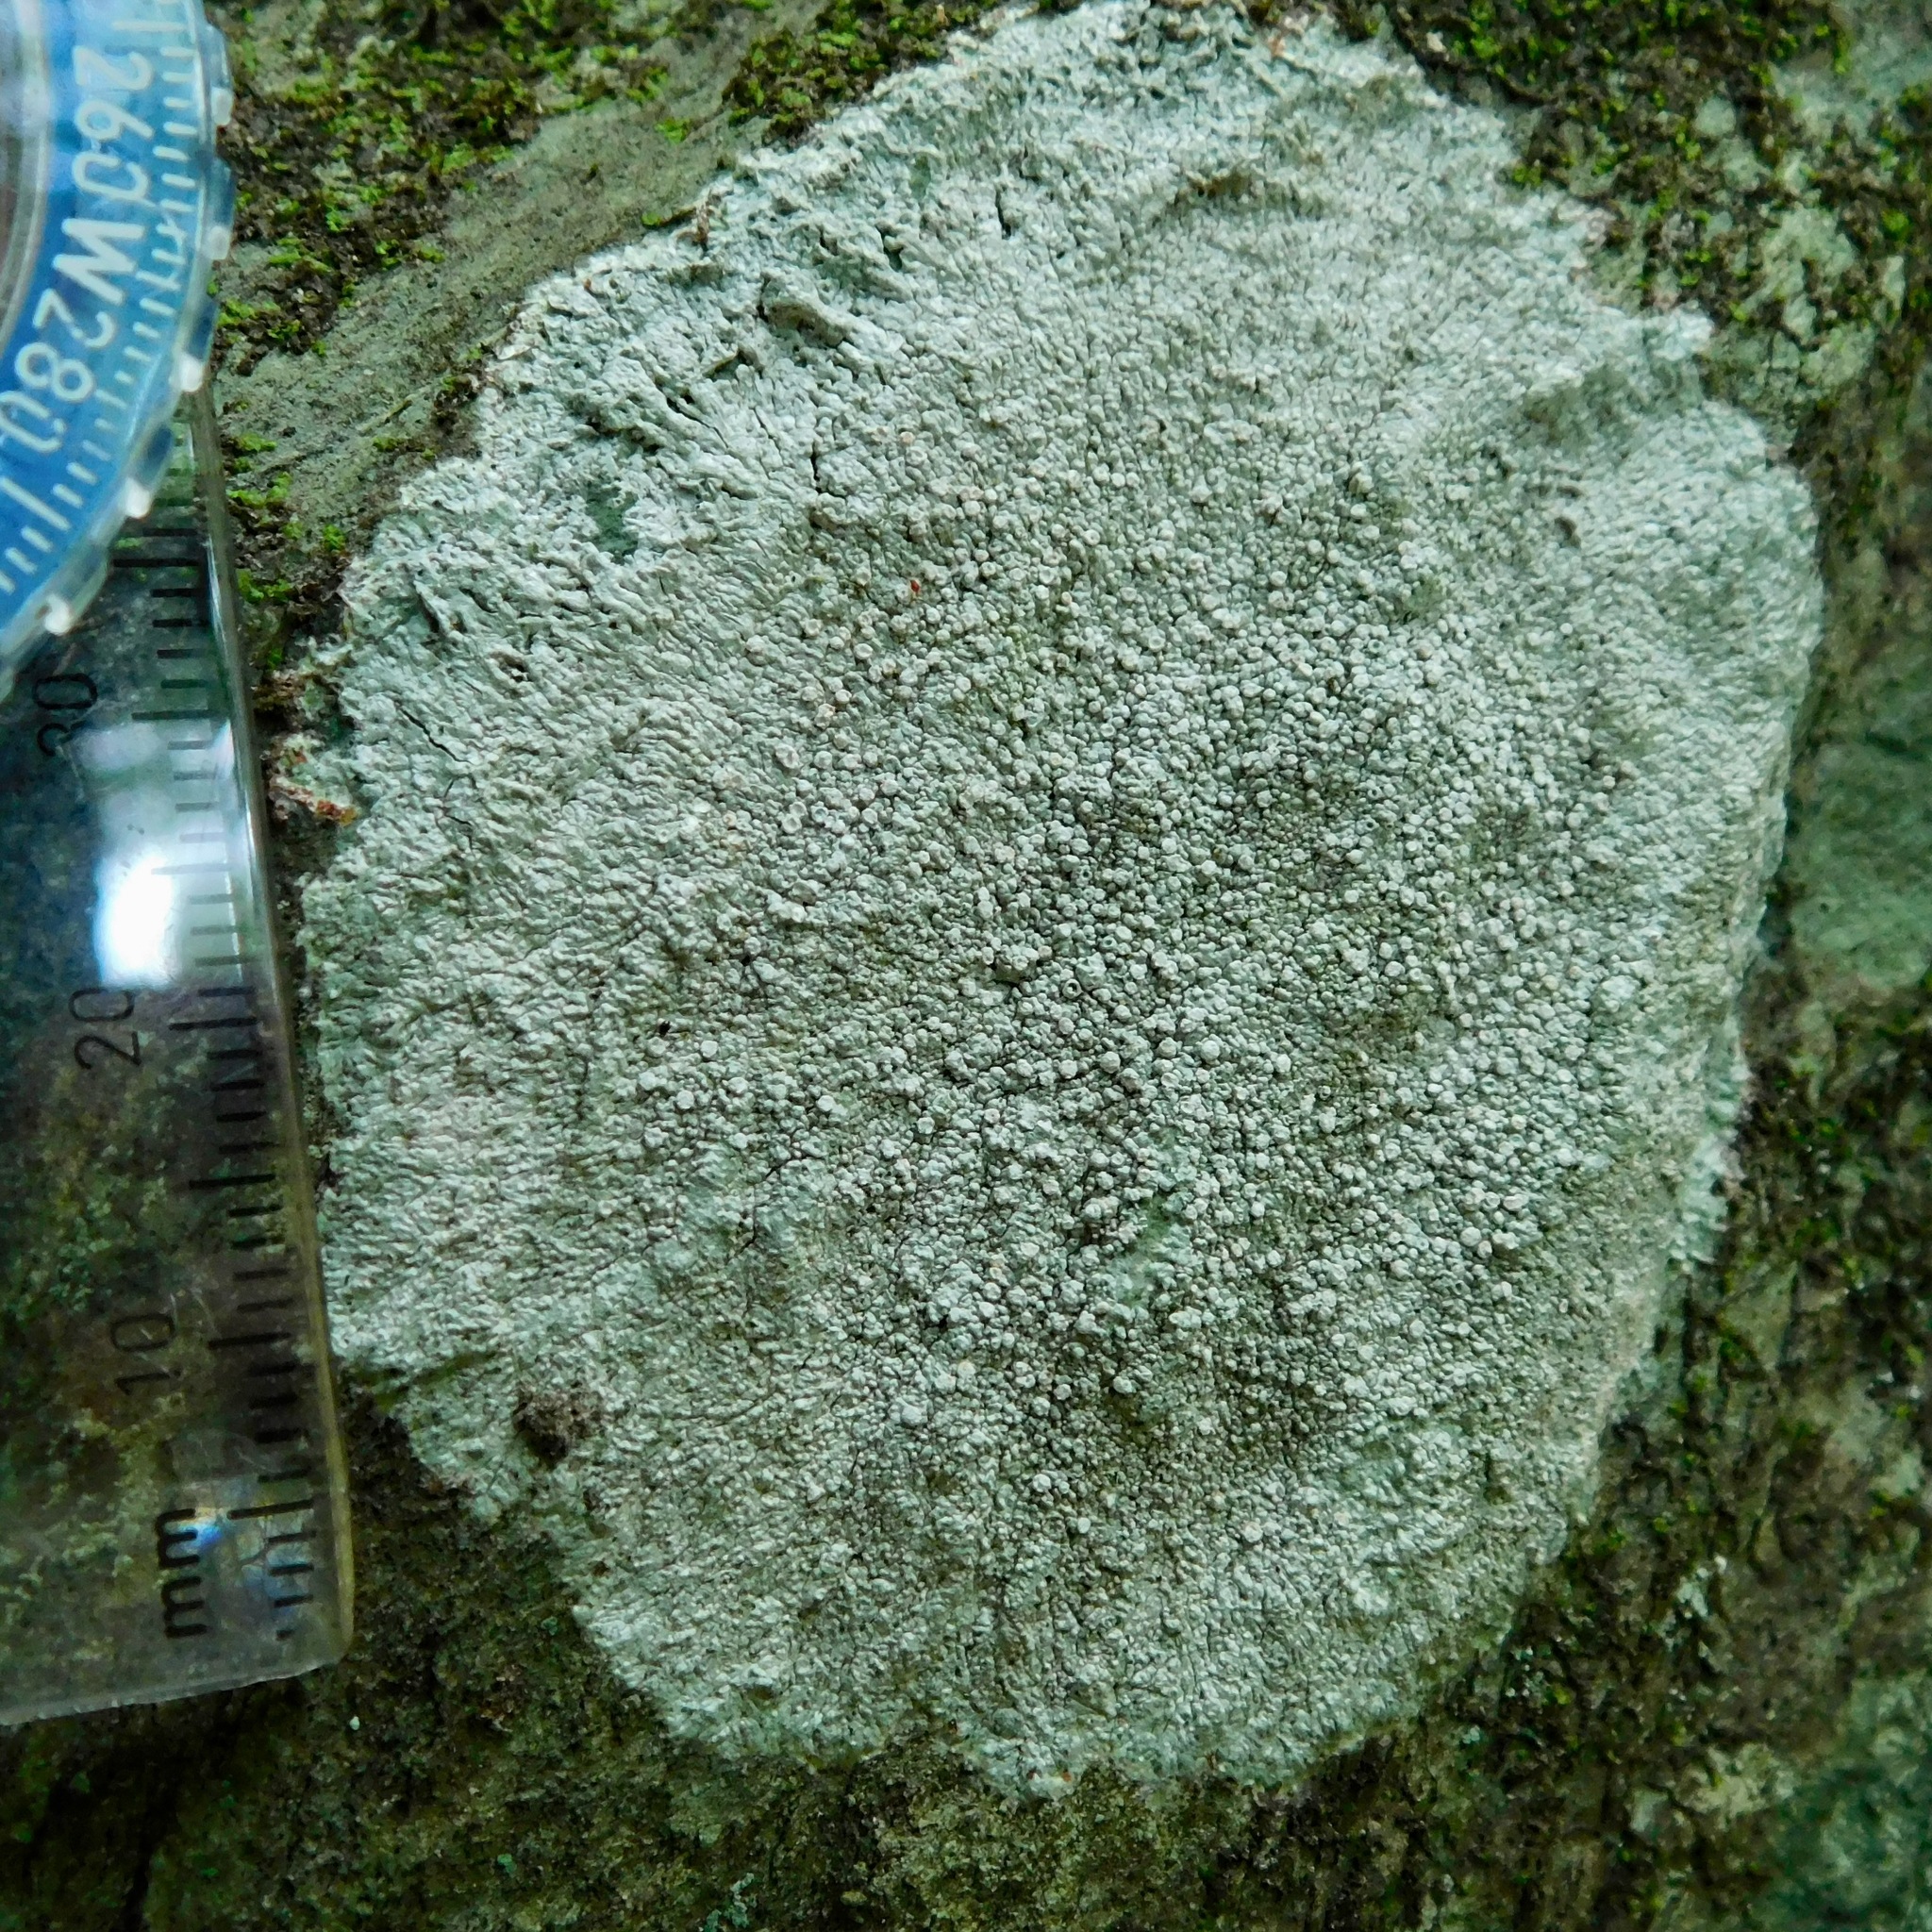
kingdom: Fungi
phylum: Ascomycota
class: Lecanoromycetes
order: Pertusariales
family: Pertusariaceae
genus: Lepra
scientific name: Lepra excludens
